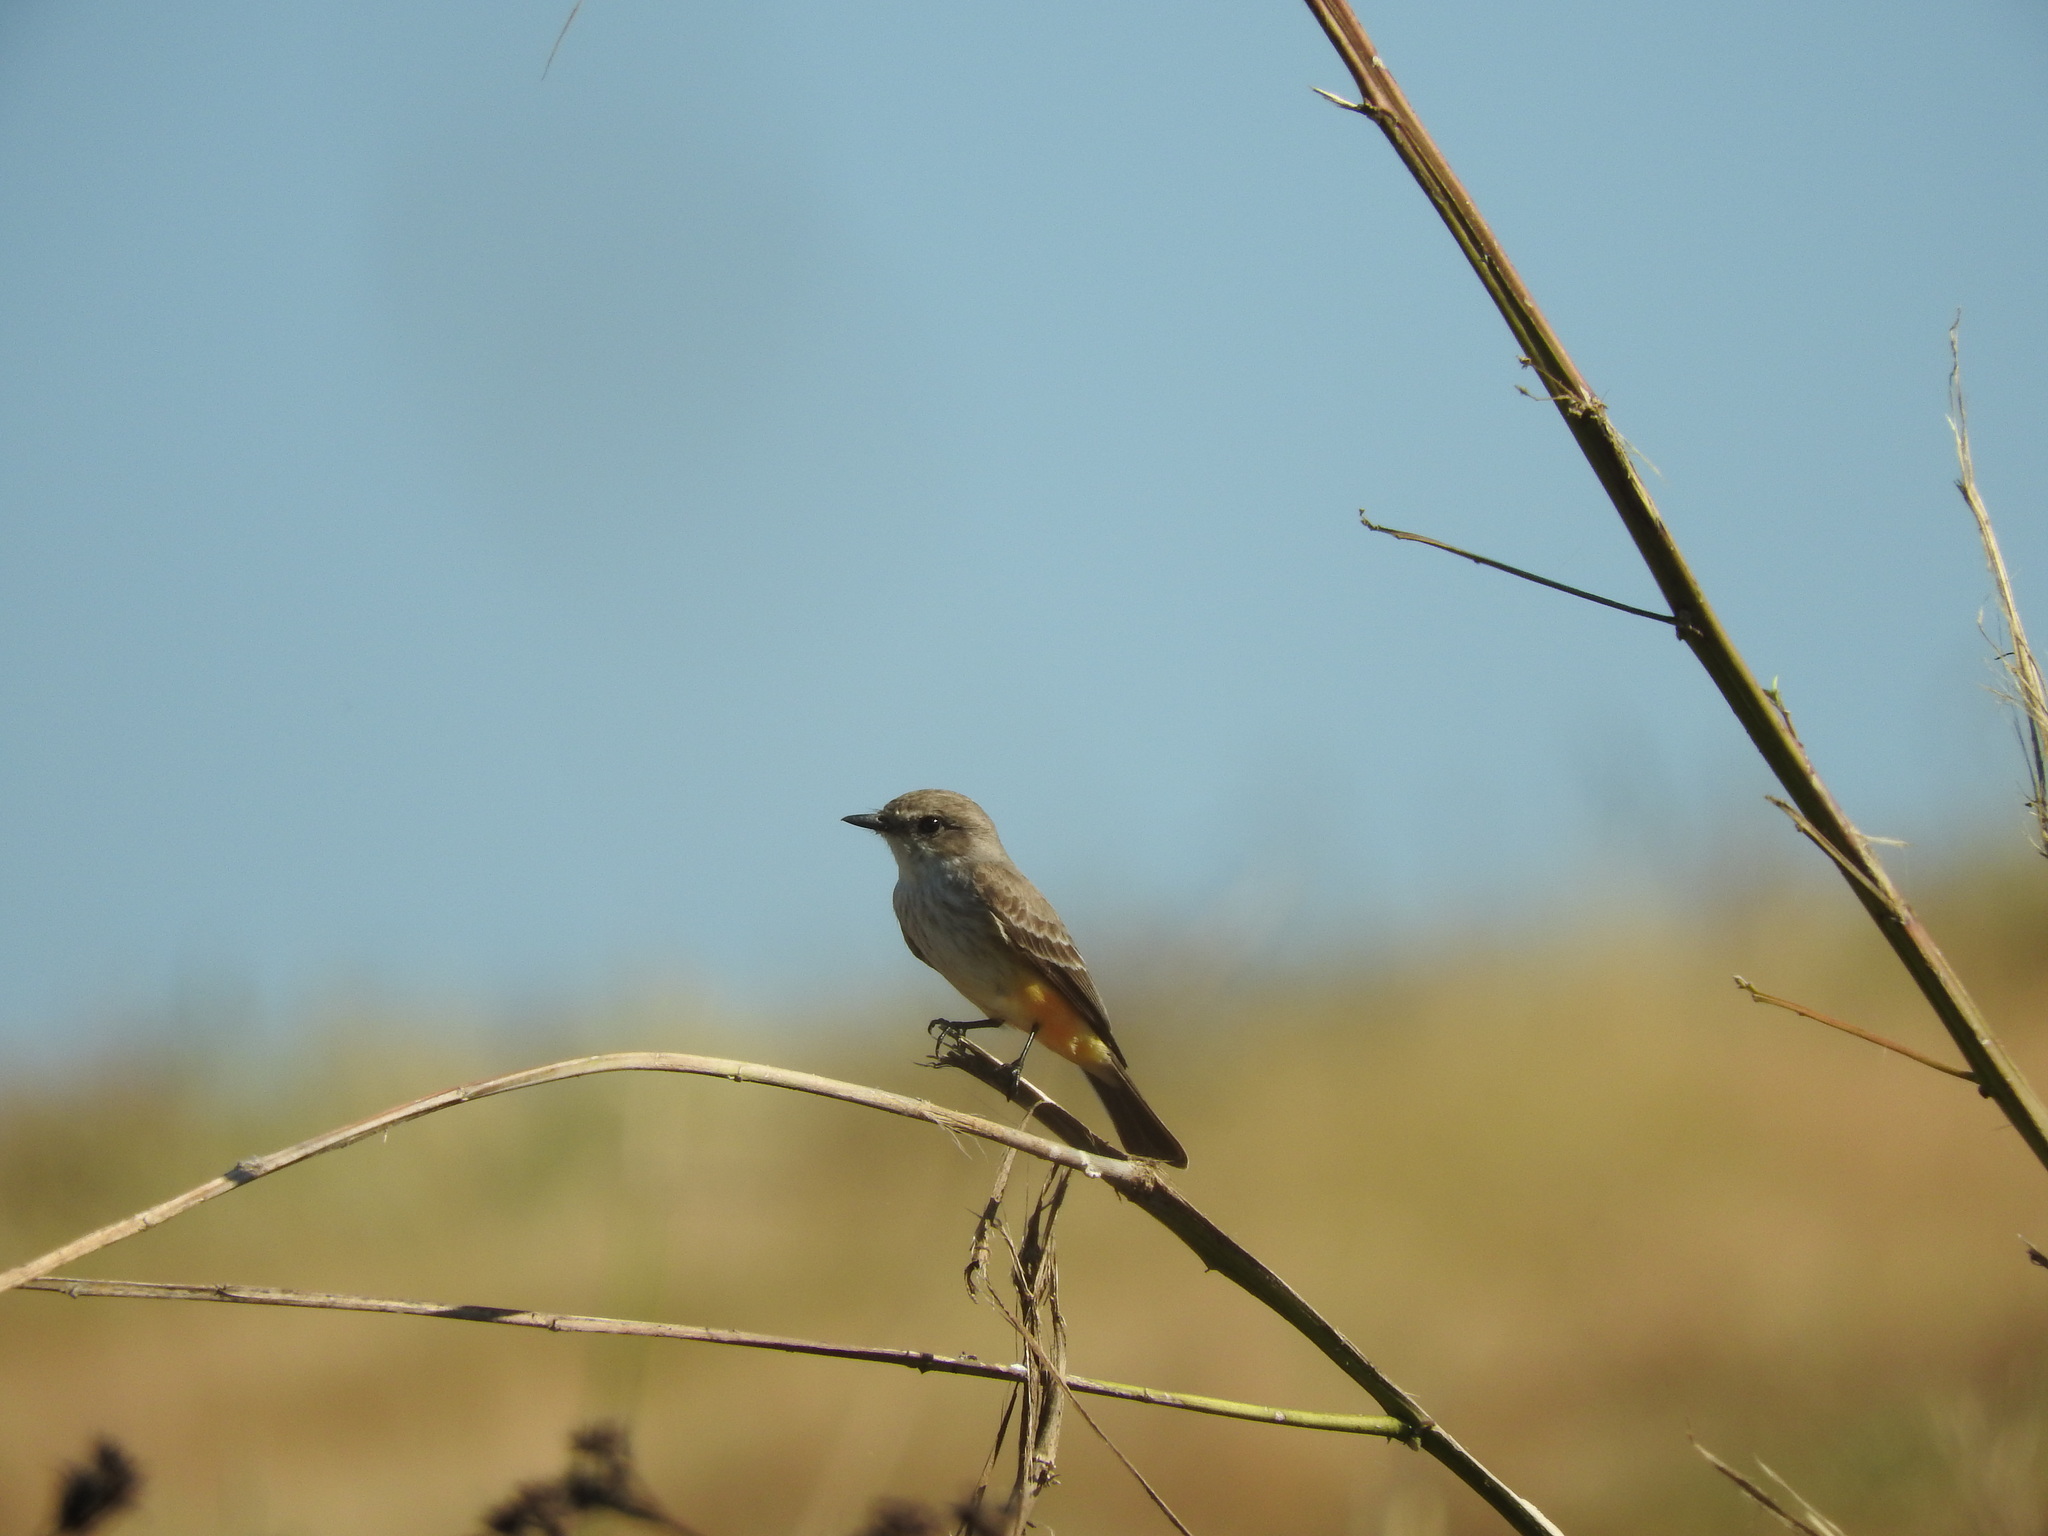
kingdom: Animalia
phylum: Chordata
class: Aves
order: Passeriformes
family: Tyrannidae
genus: Pyrocephalus
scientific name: Pyrocephalus rubinus
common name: Vermilion flycatcher
